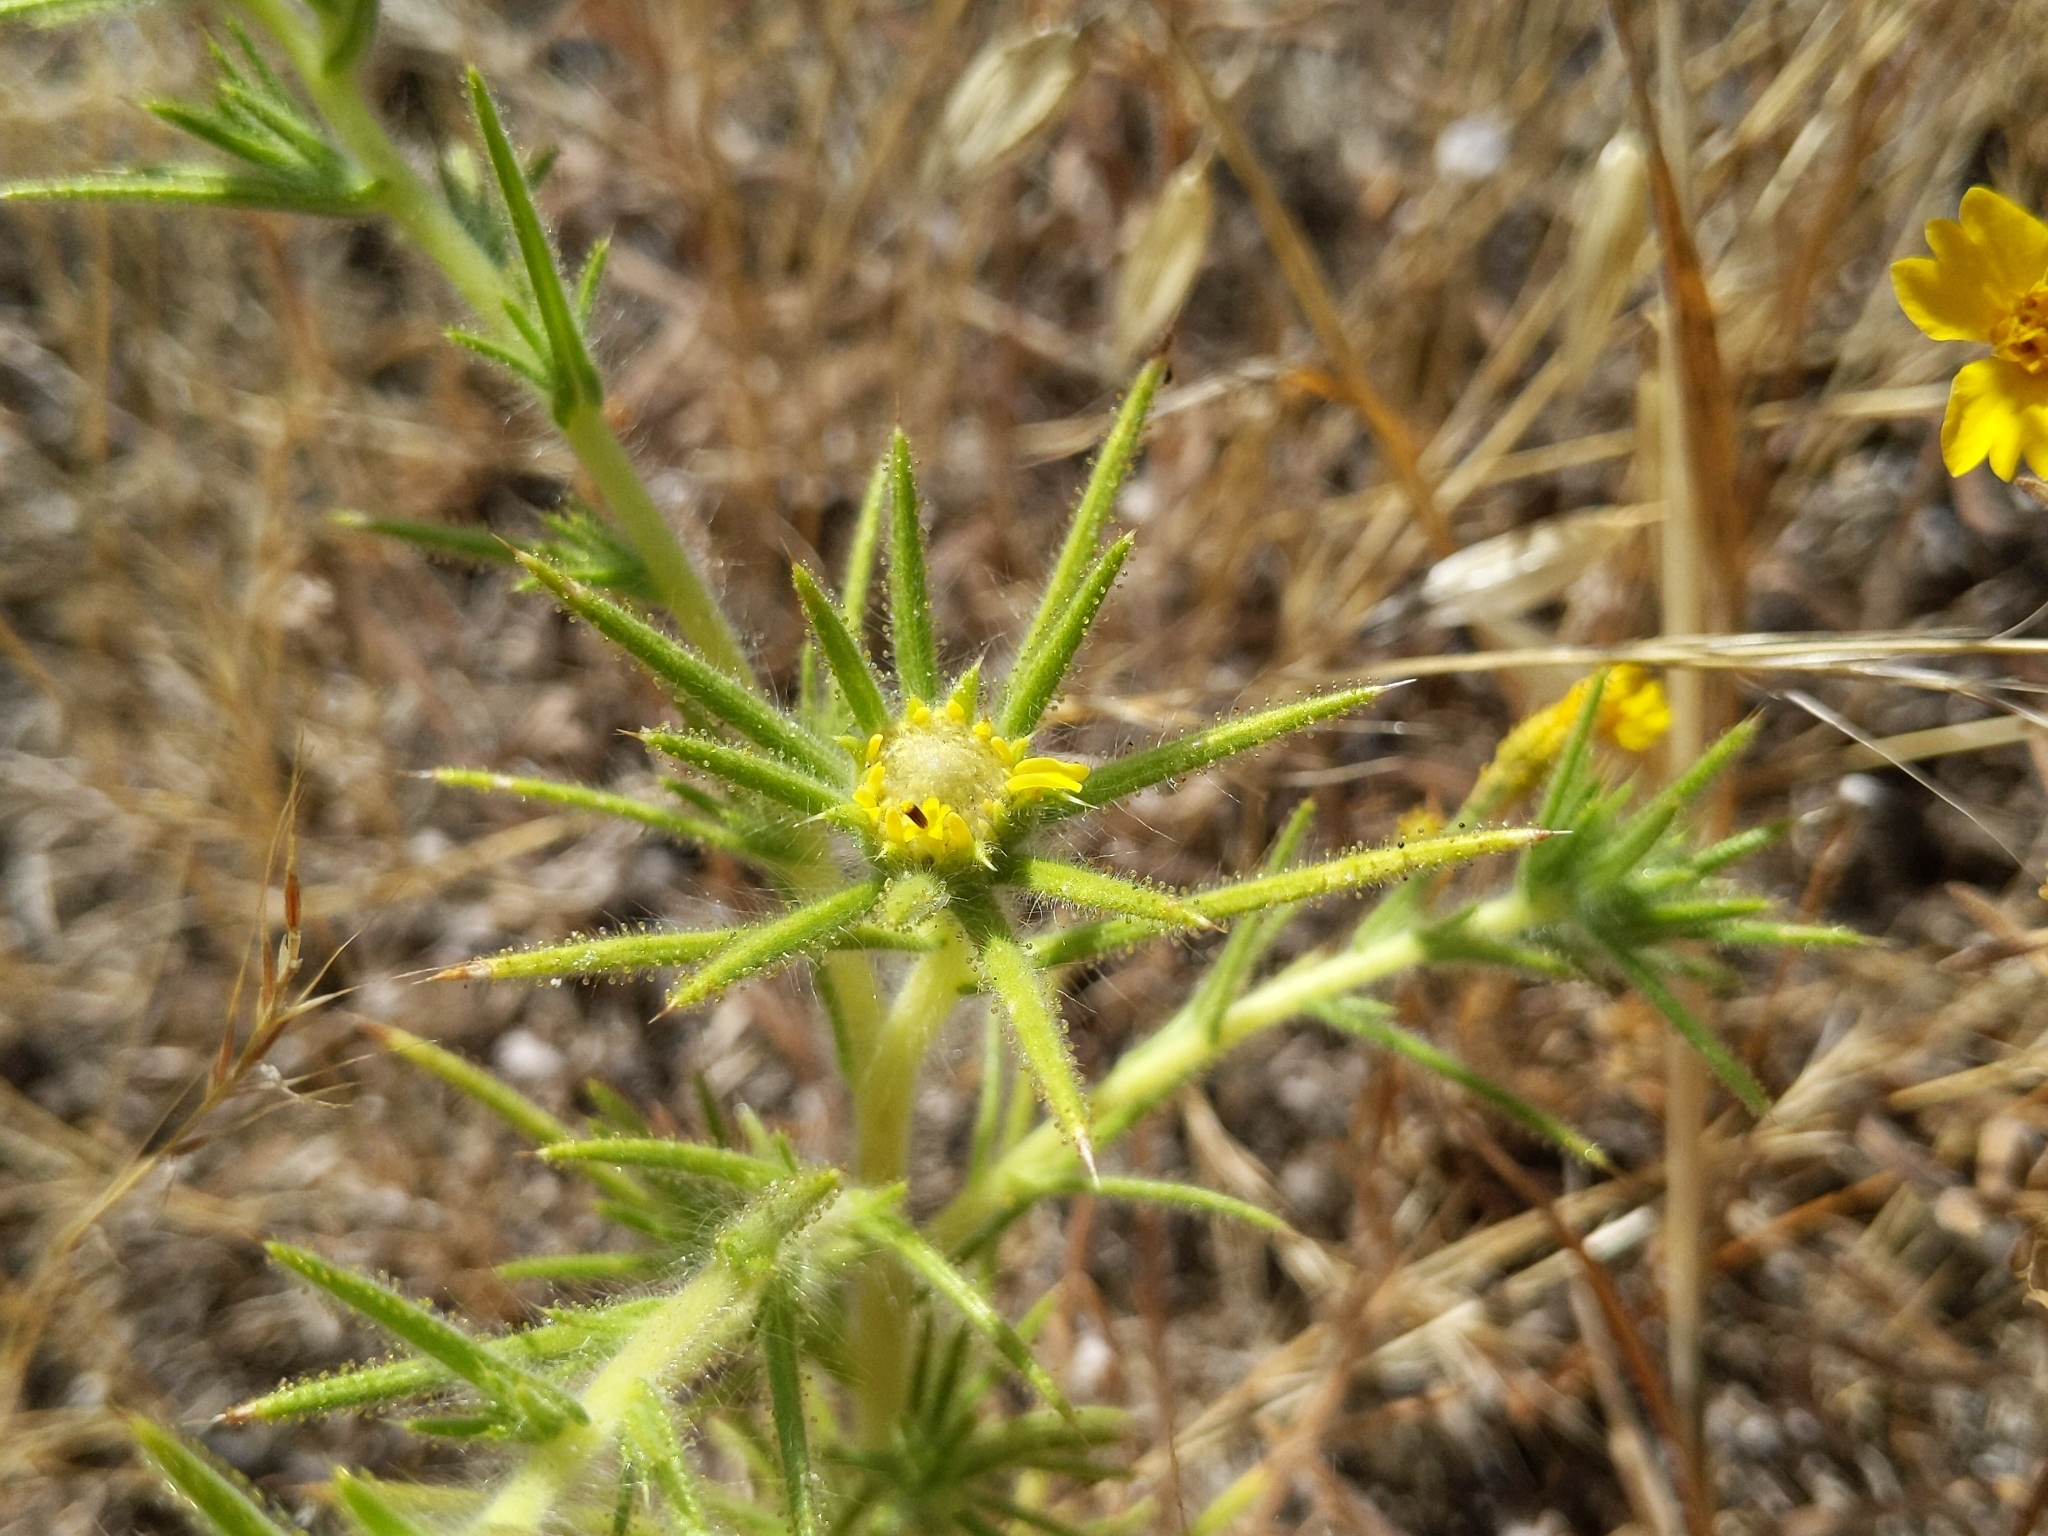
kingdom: Plantae
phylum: Tracheophyta
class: Magnoliopsida
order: Asterales
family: Asteraceae
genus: Centromadia
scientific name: Centromadia fitchii
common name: Fitch's spikeweed
